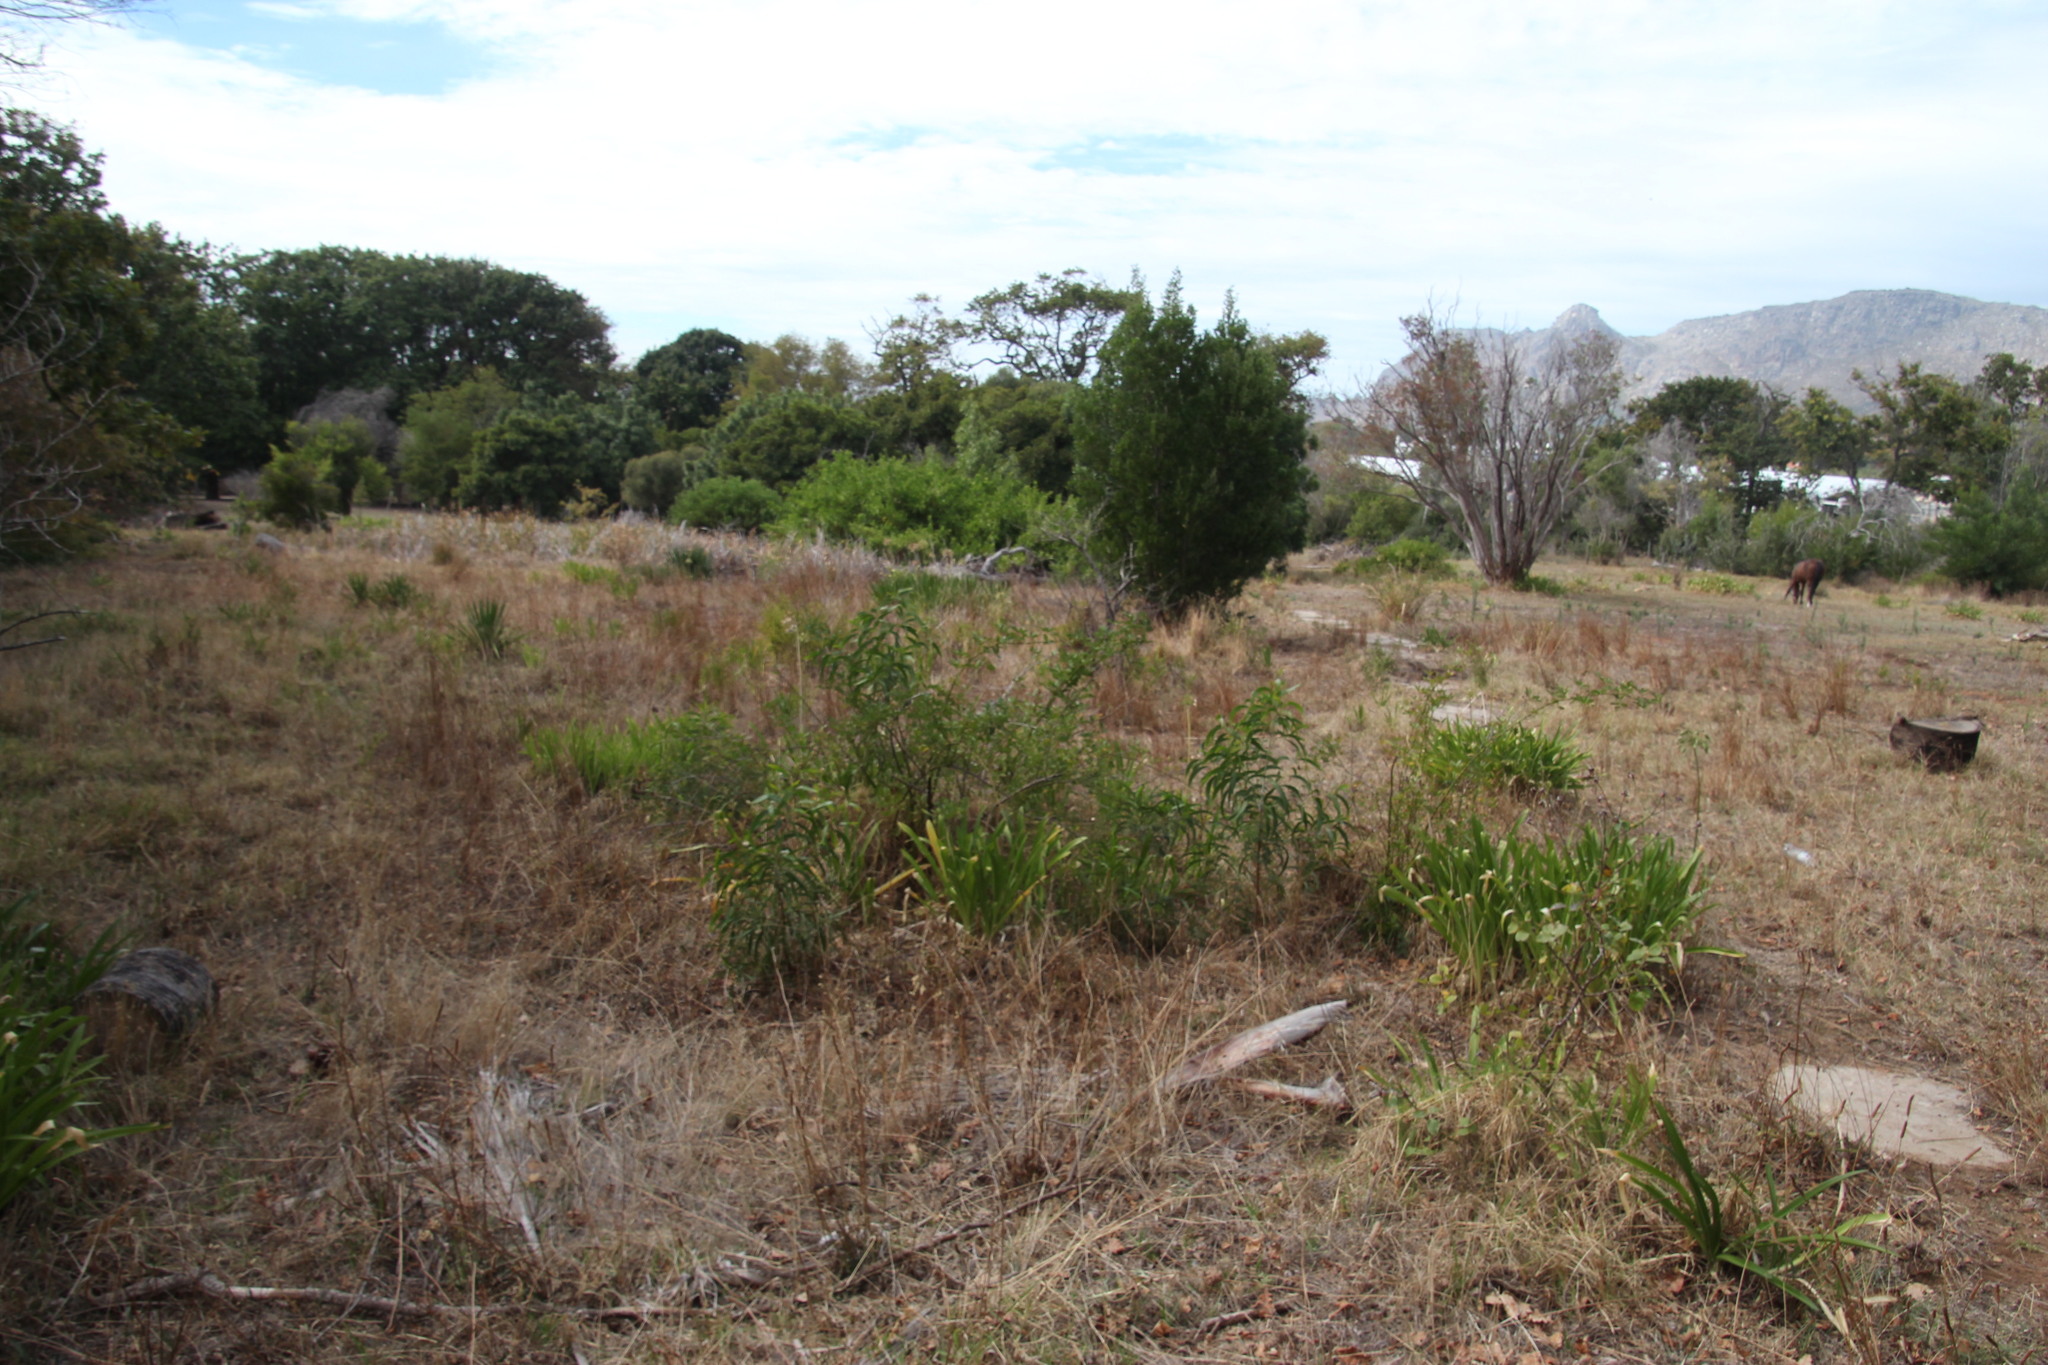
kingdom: Plantae
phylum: Tracheophyta
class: Magnoliopsida
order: Fabales
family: Fabaceae
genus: Acacia
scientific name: Acacia implexa
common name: Black wattle
